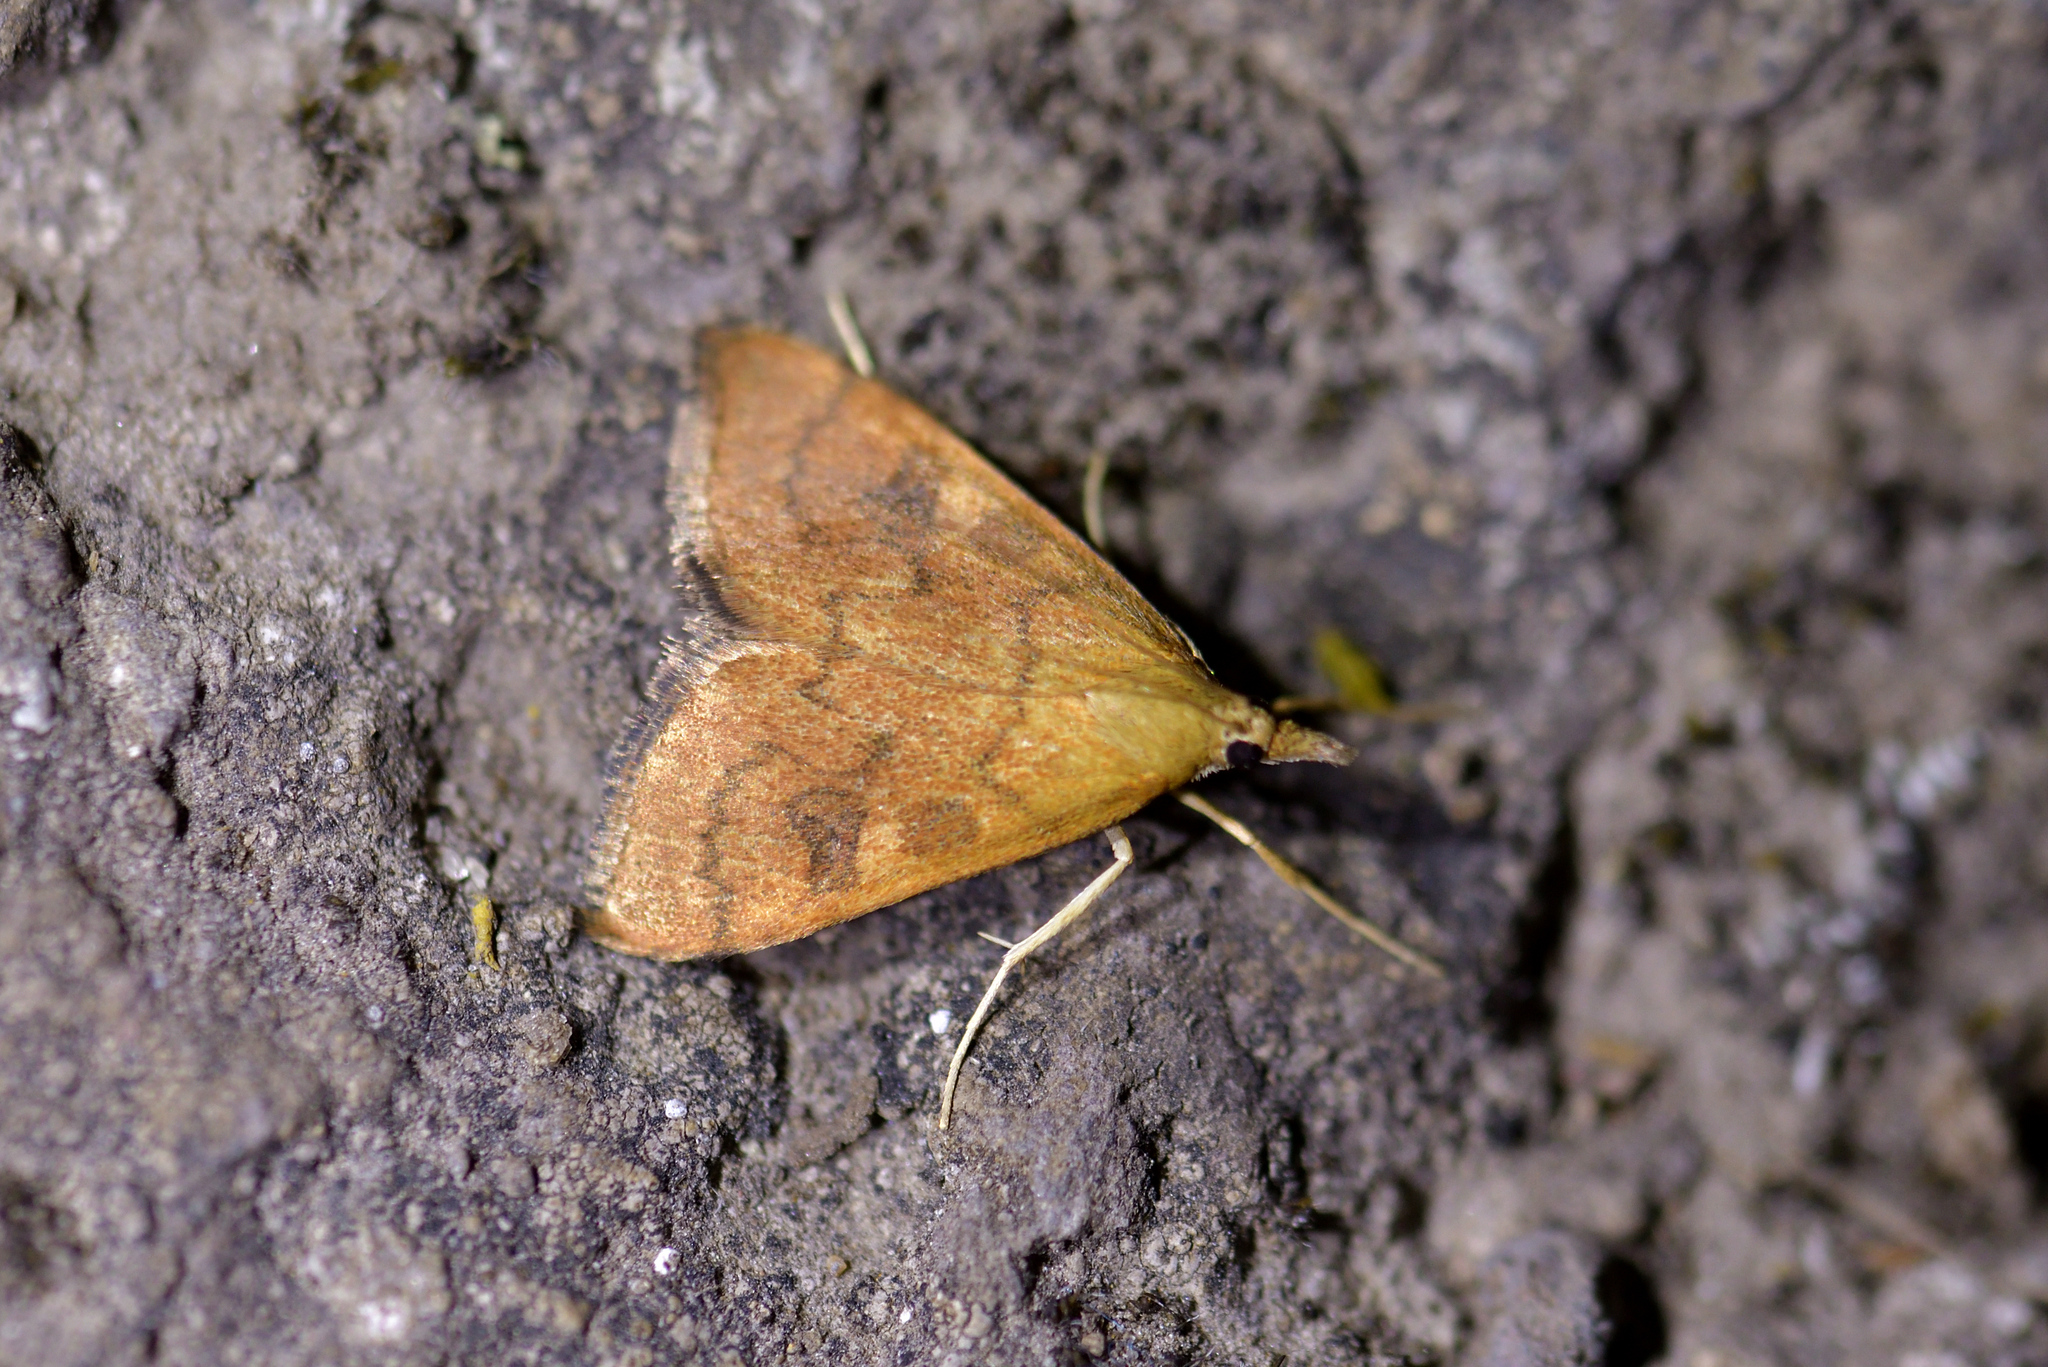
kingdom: Animalia
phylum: Arthropoda
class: Insecta
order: Lepidoptera
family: Crambidae
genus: Udea
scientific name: Udea Mnesictena flavidalis
